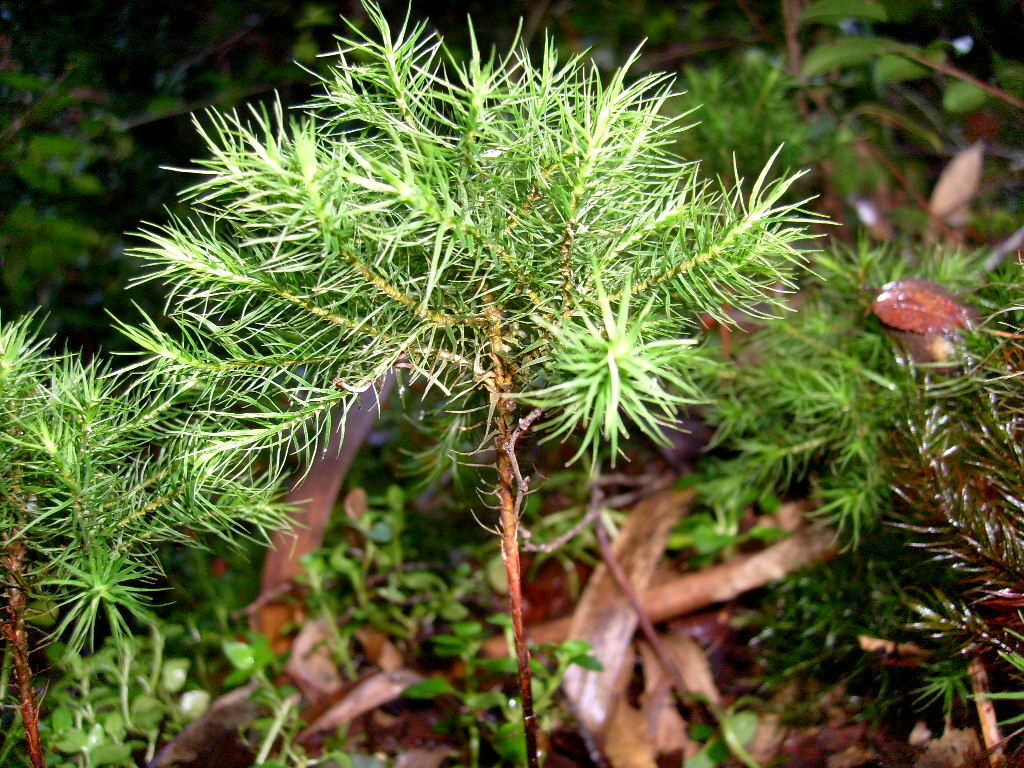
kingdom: Plantae
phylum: Bryophyta
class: Polytrichopsida
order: Polytrichales
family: Polytrichaceae
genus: Dendroligotrichum
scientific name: Dendroligotrichum dendroides
